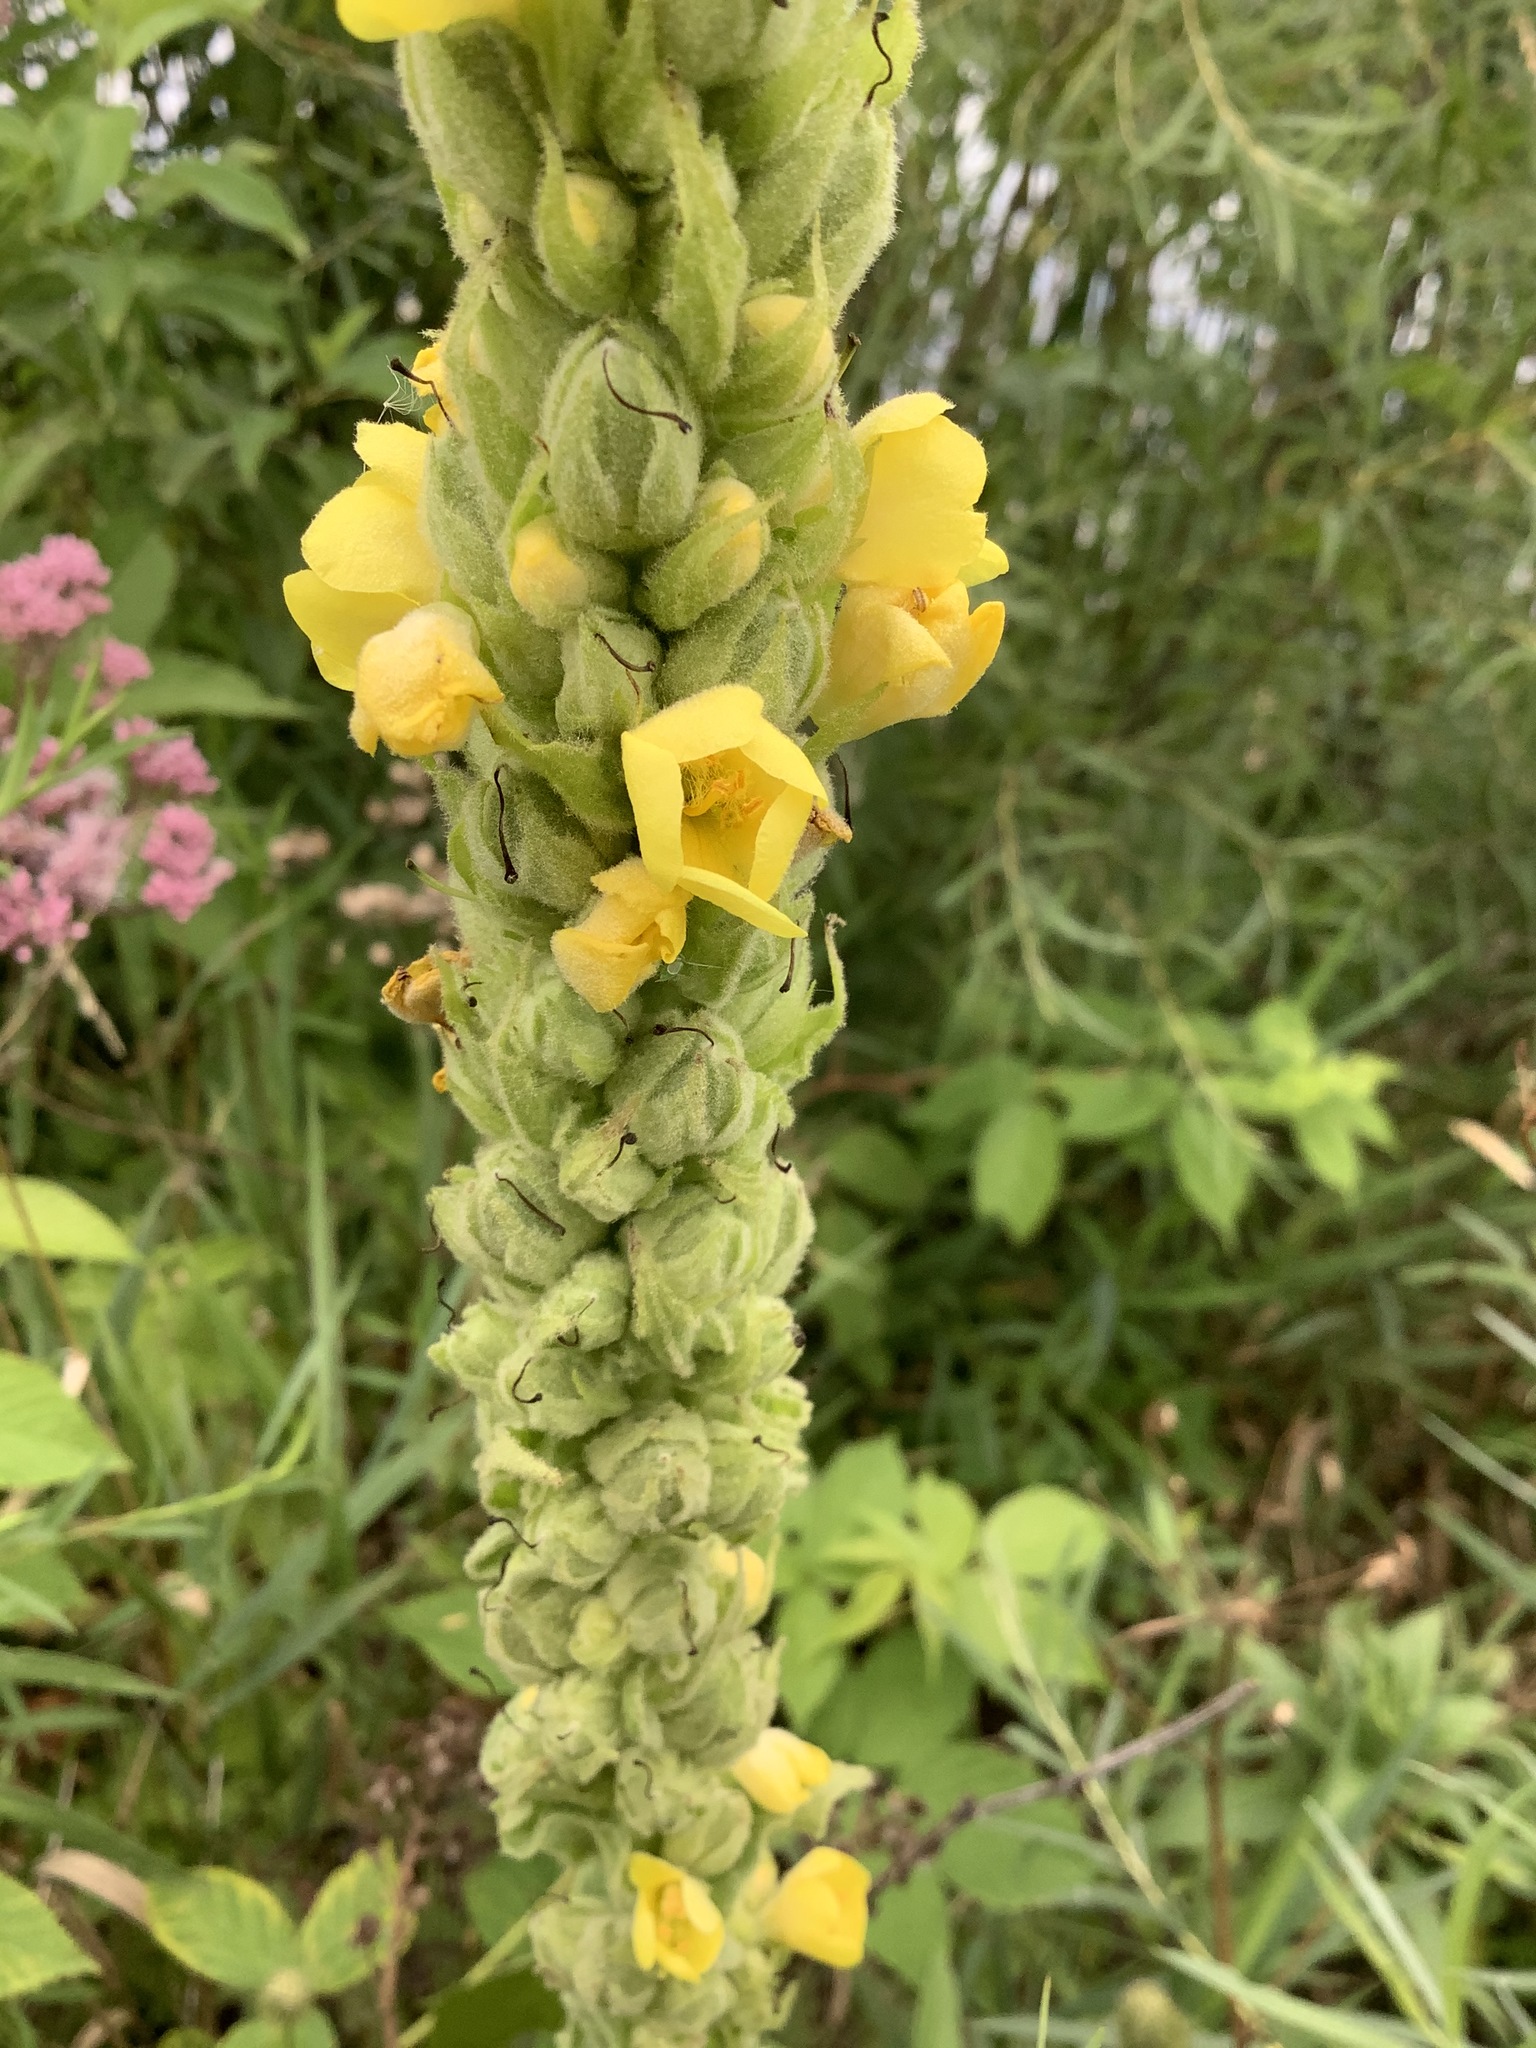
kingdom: Plantae
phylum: Tracheophyta
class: Magnoliopsida
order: Lamiales
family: Scrophulariaceae
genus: Verbascum
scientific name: Verbascum thapsus
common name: Common mullein
